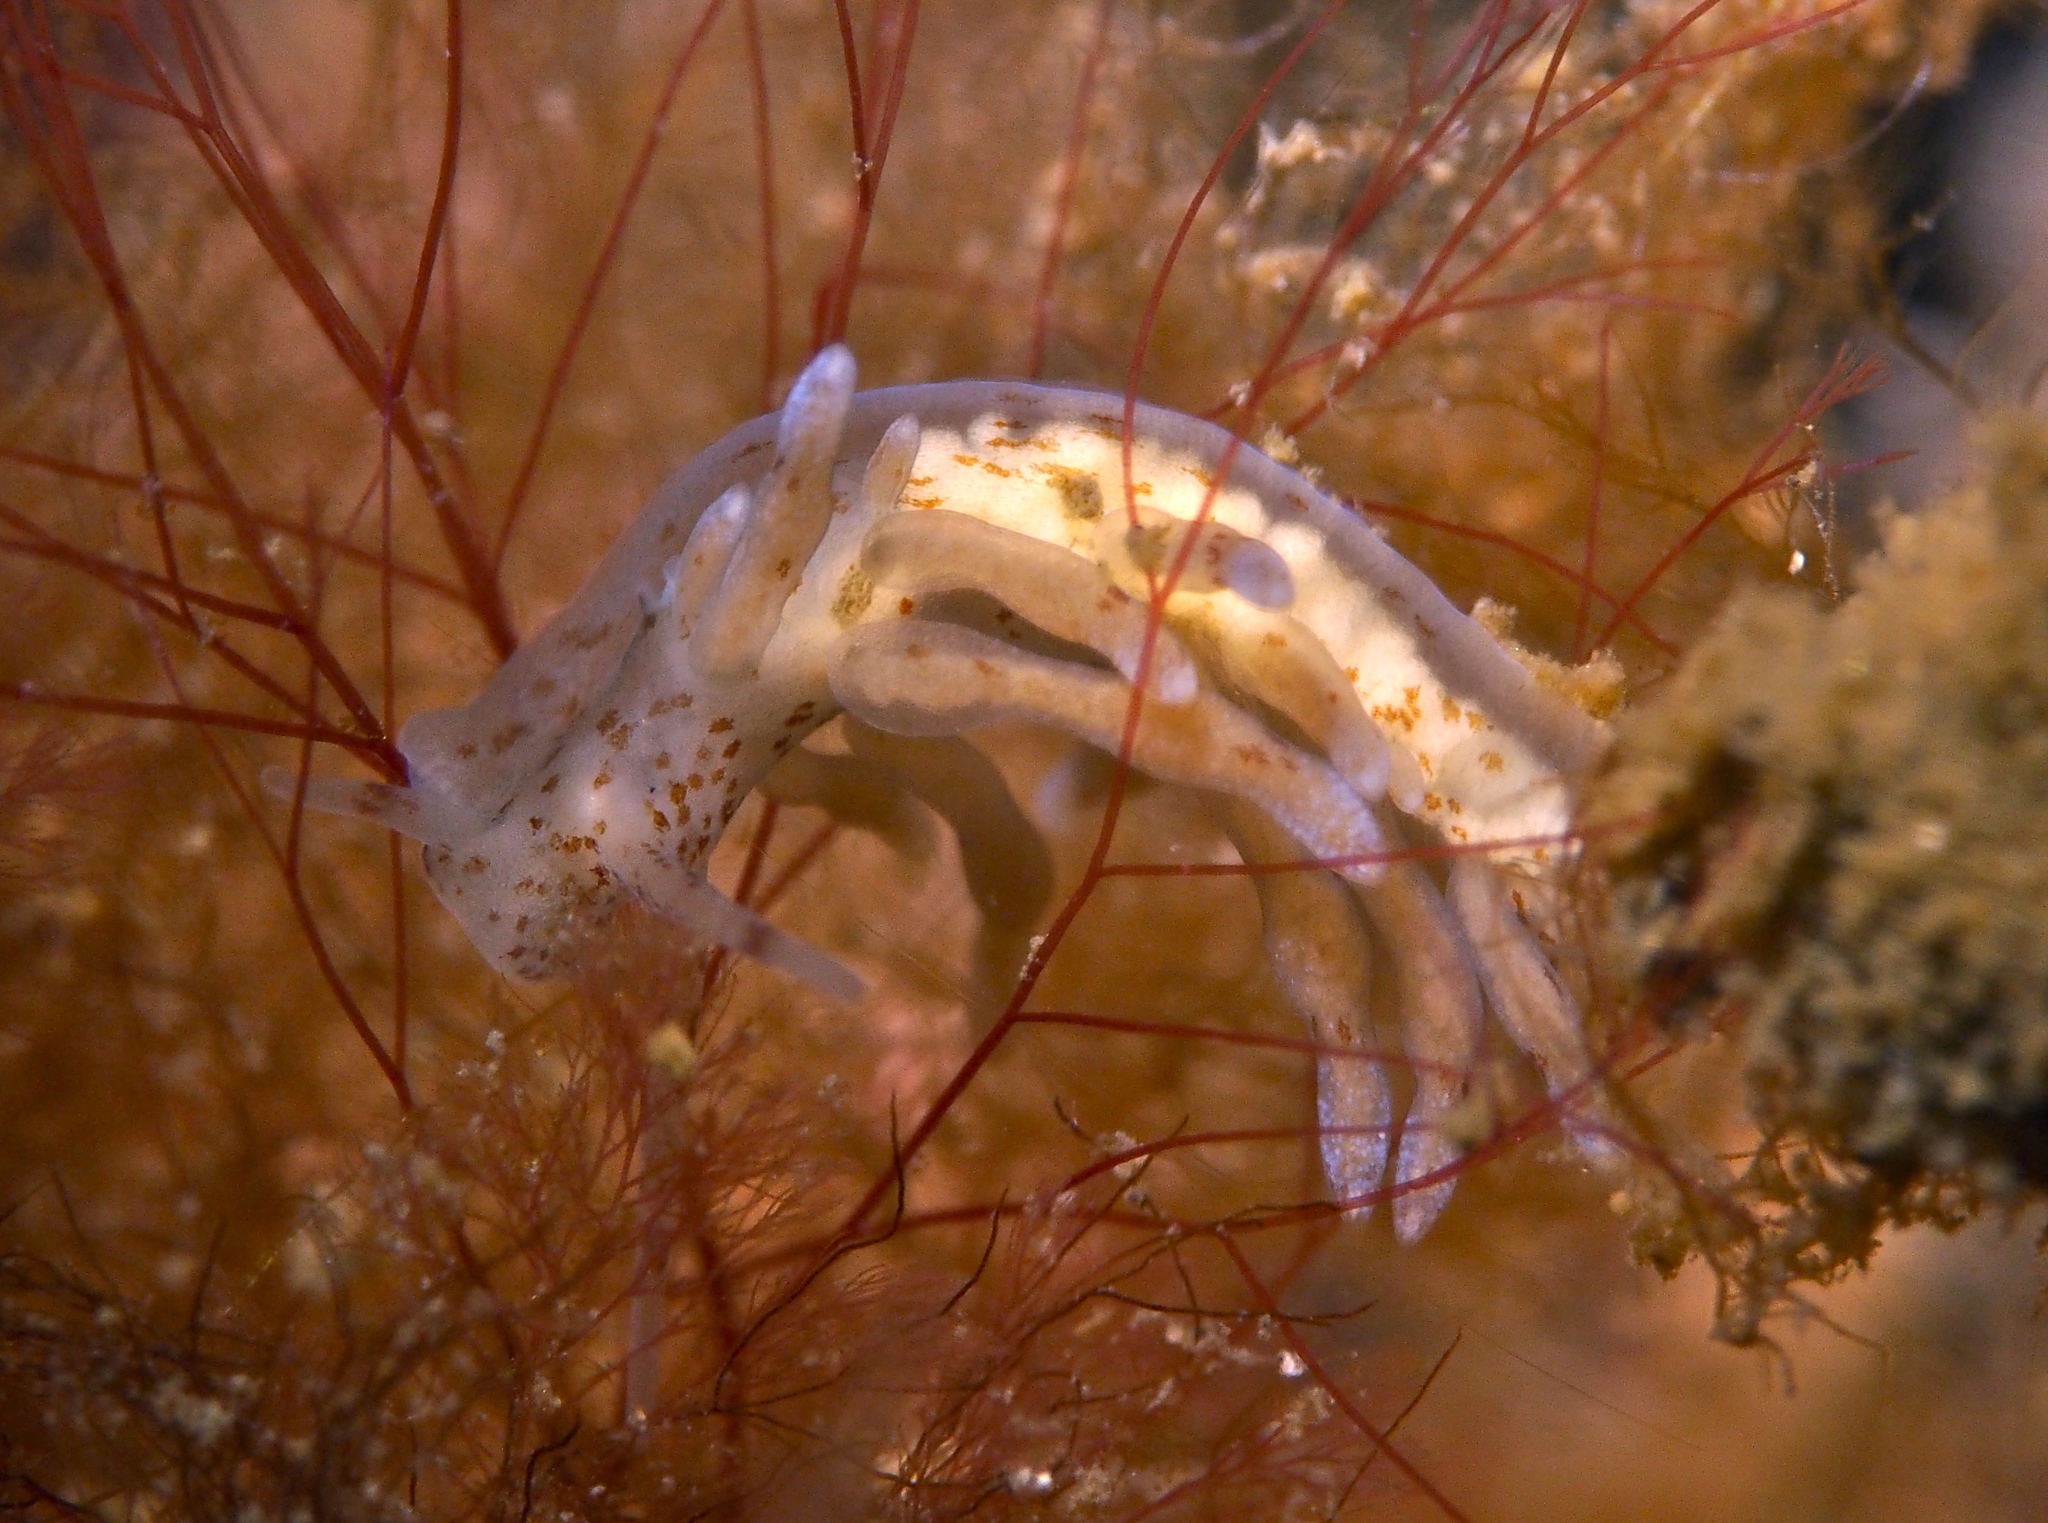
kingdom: Animalia
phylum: Mollusca
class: Gastropoda
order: Nudibranchia
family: Eubranchidae
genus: Eubranchus
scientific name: Eubranchus rupium
